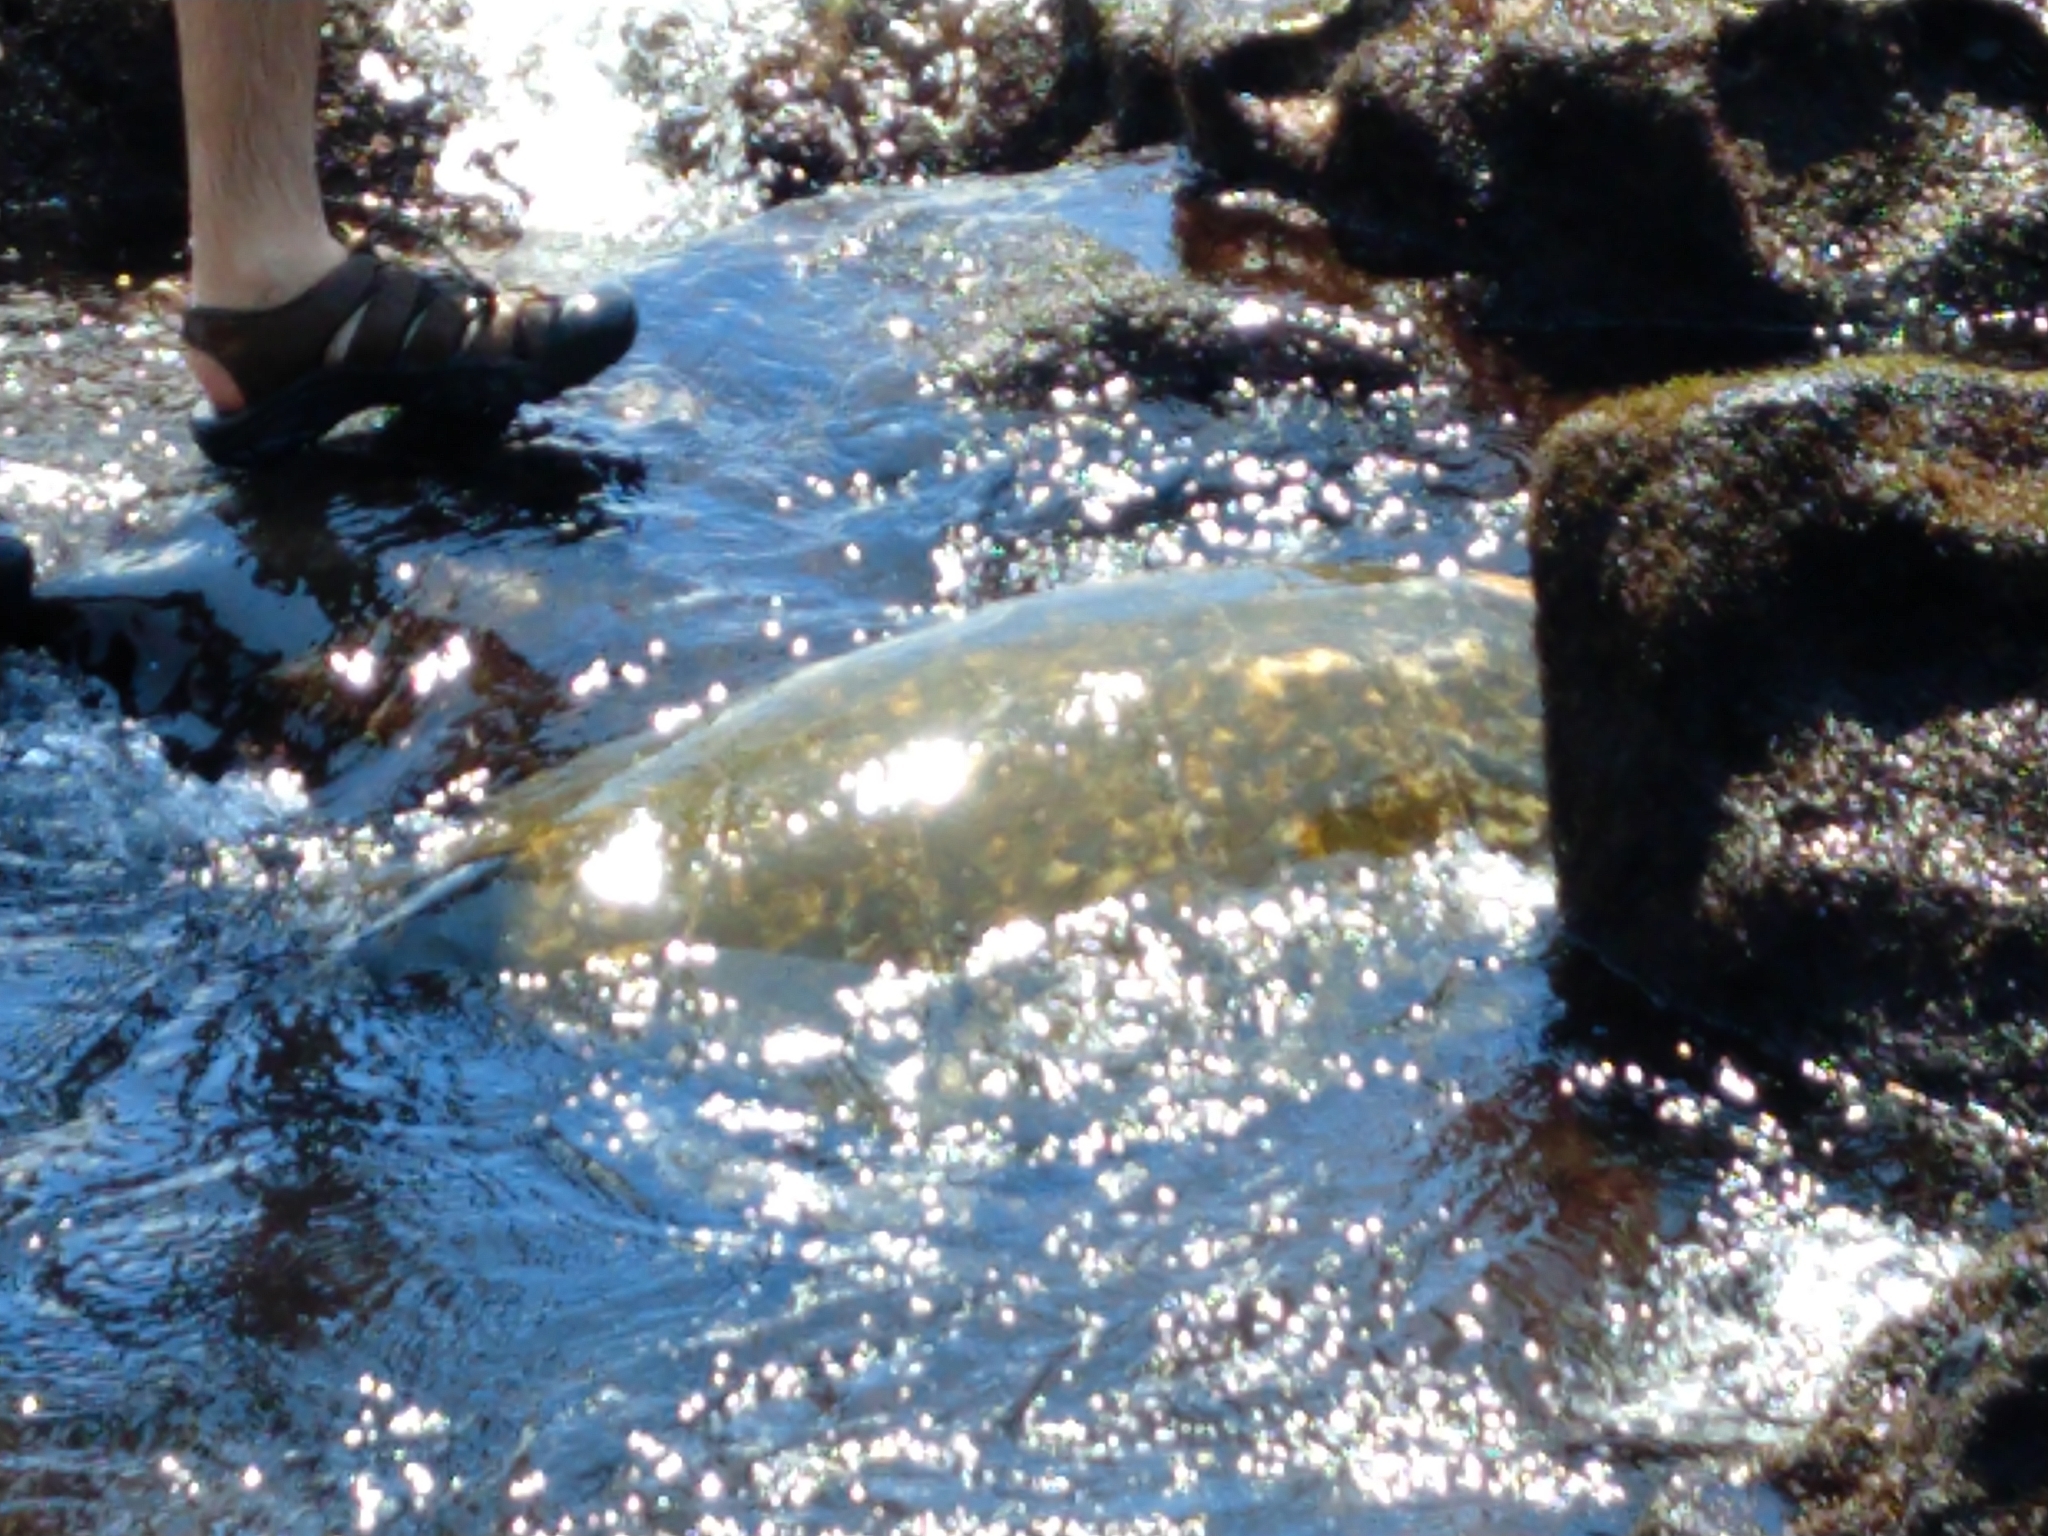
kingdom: Animalia
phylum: Chordata
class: Testudines
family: Cheloniidae
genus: Chelonia
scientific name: Chelonia mydas
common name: Green turtle
